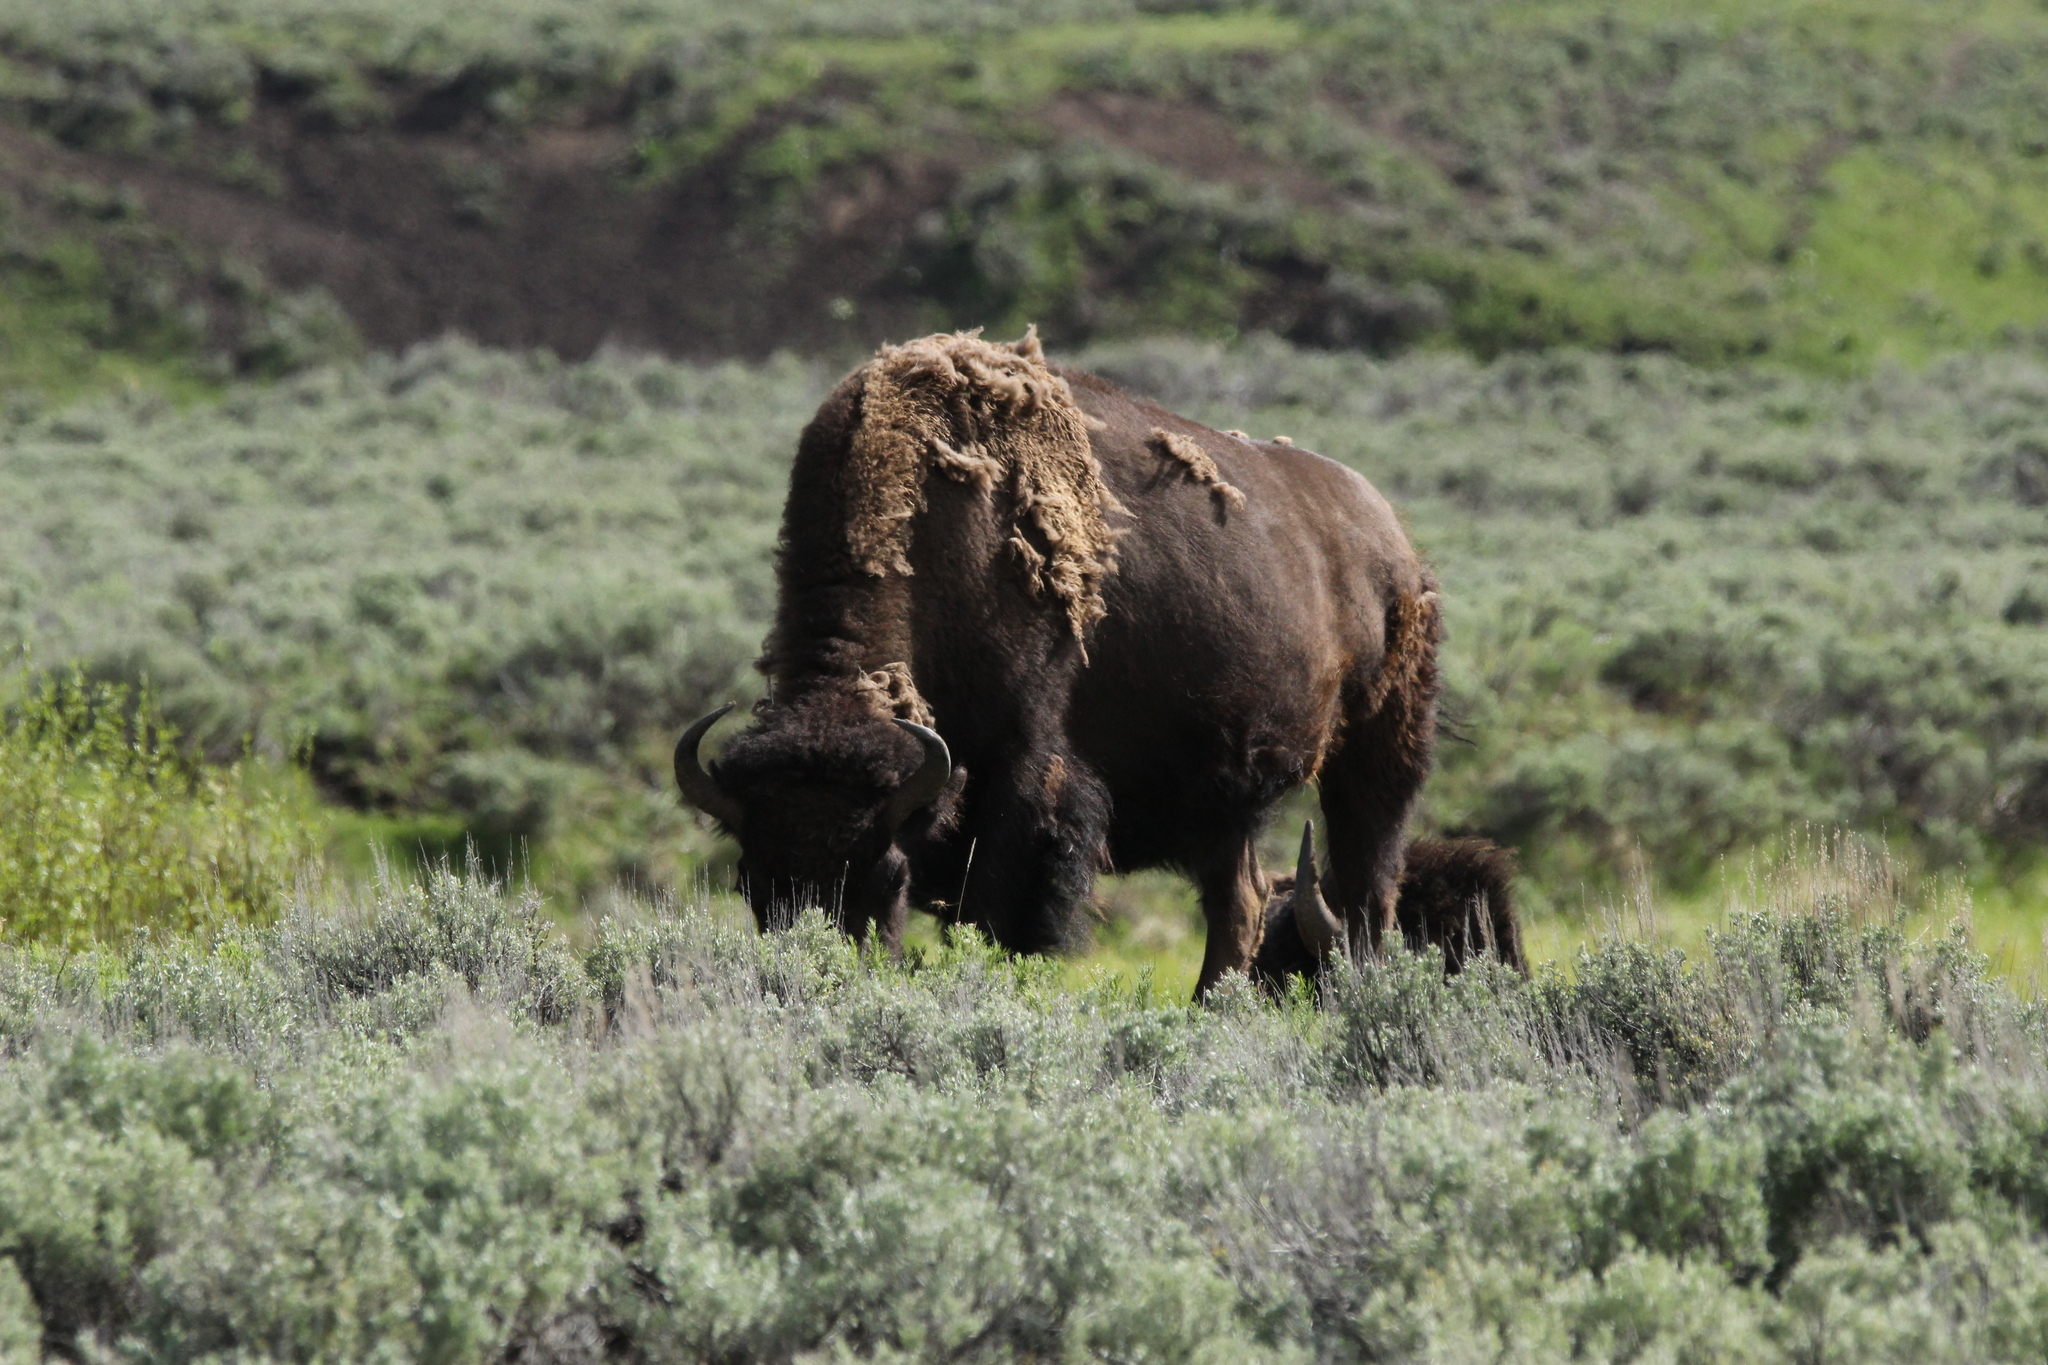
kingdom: Animalia
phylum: Chordata
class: Mammalia
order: Artiodactyla
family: Bovidae
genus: Bison
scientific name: Bison bison
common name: American bison
